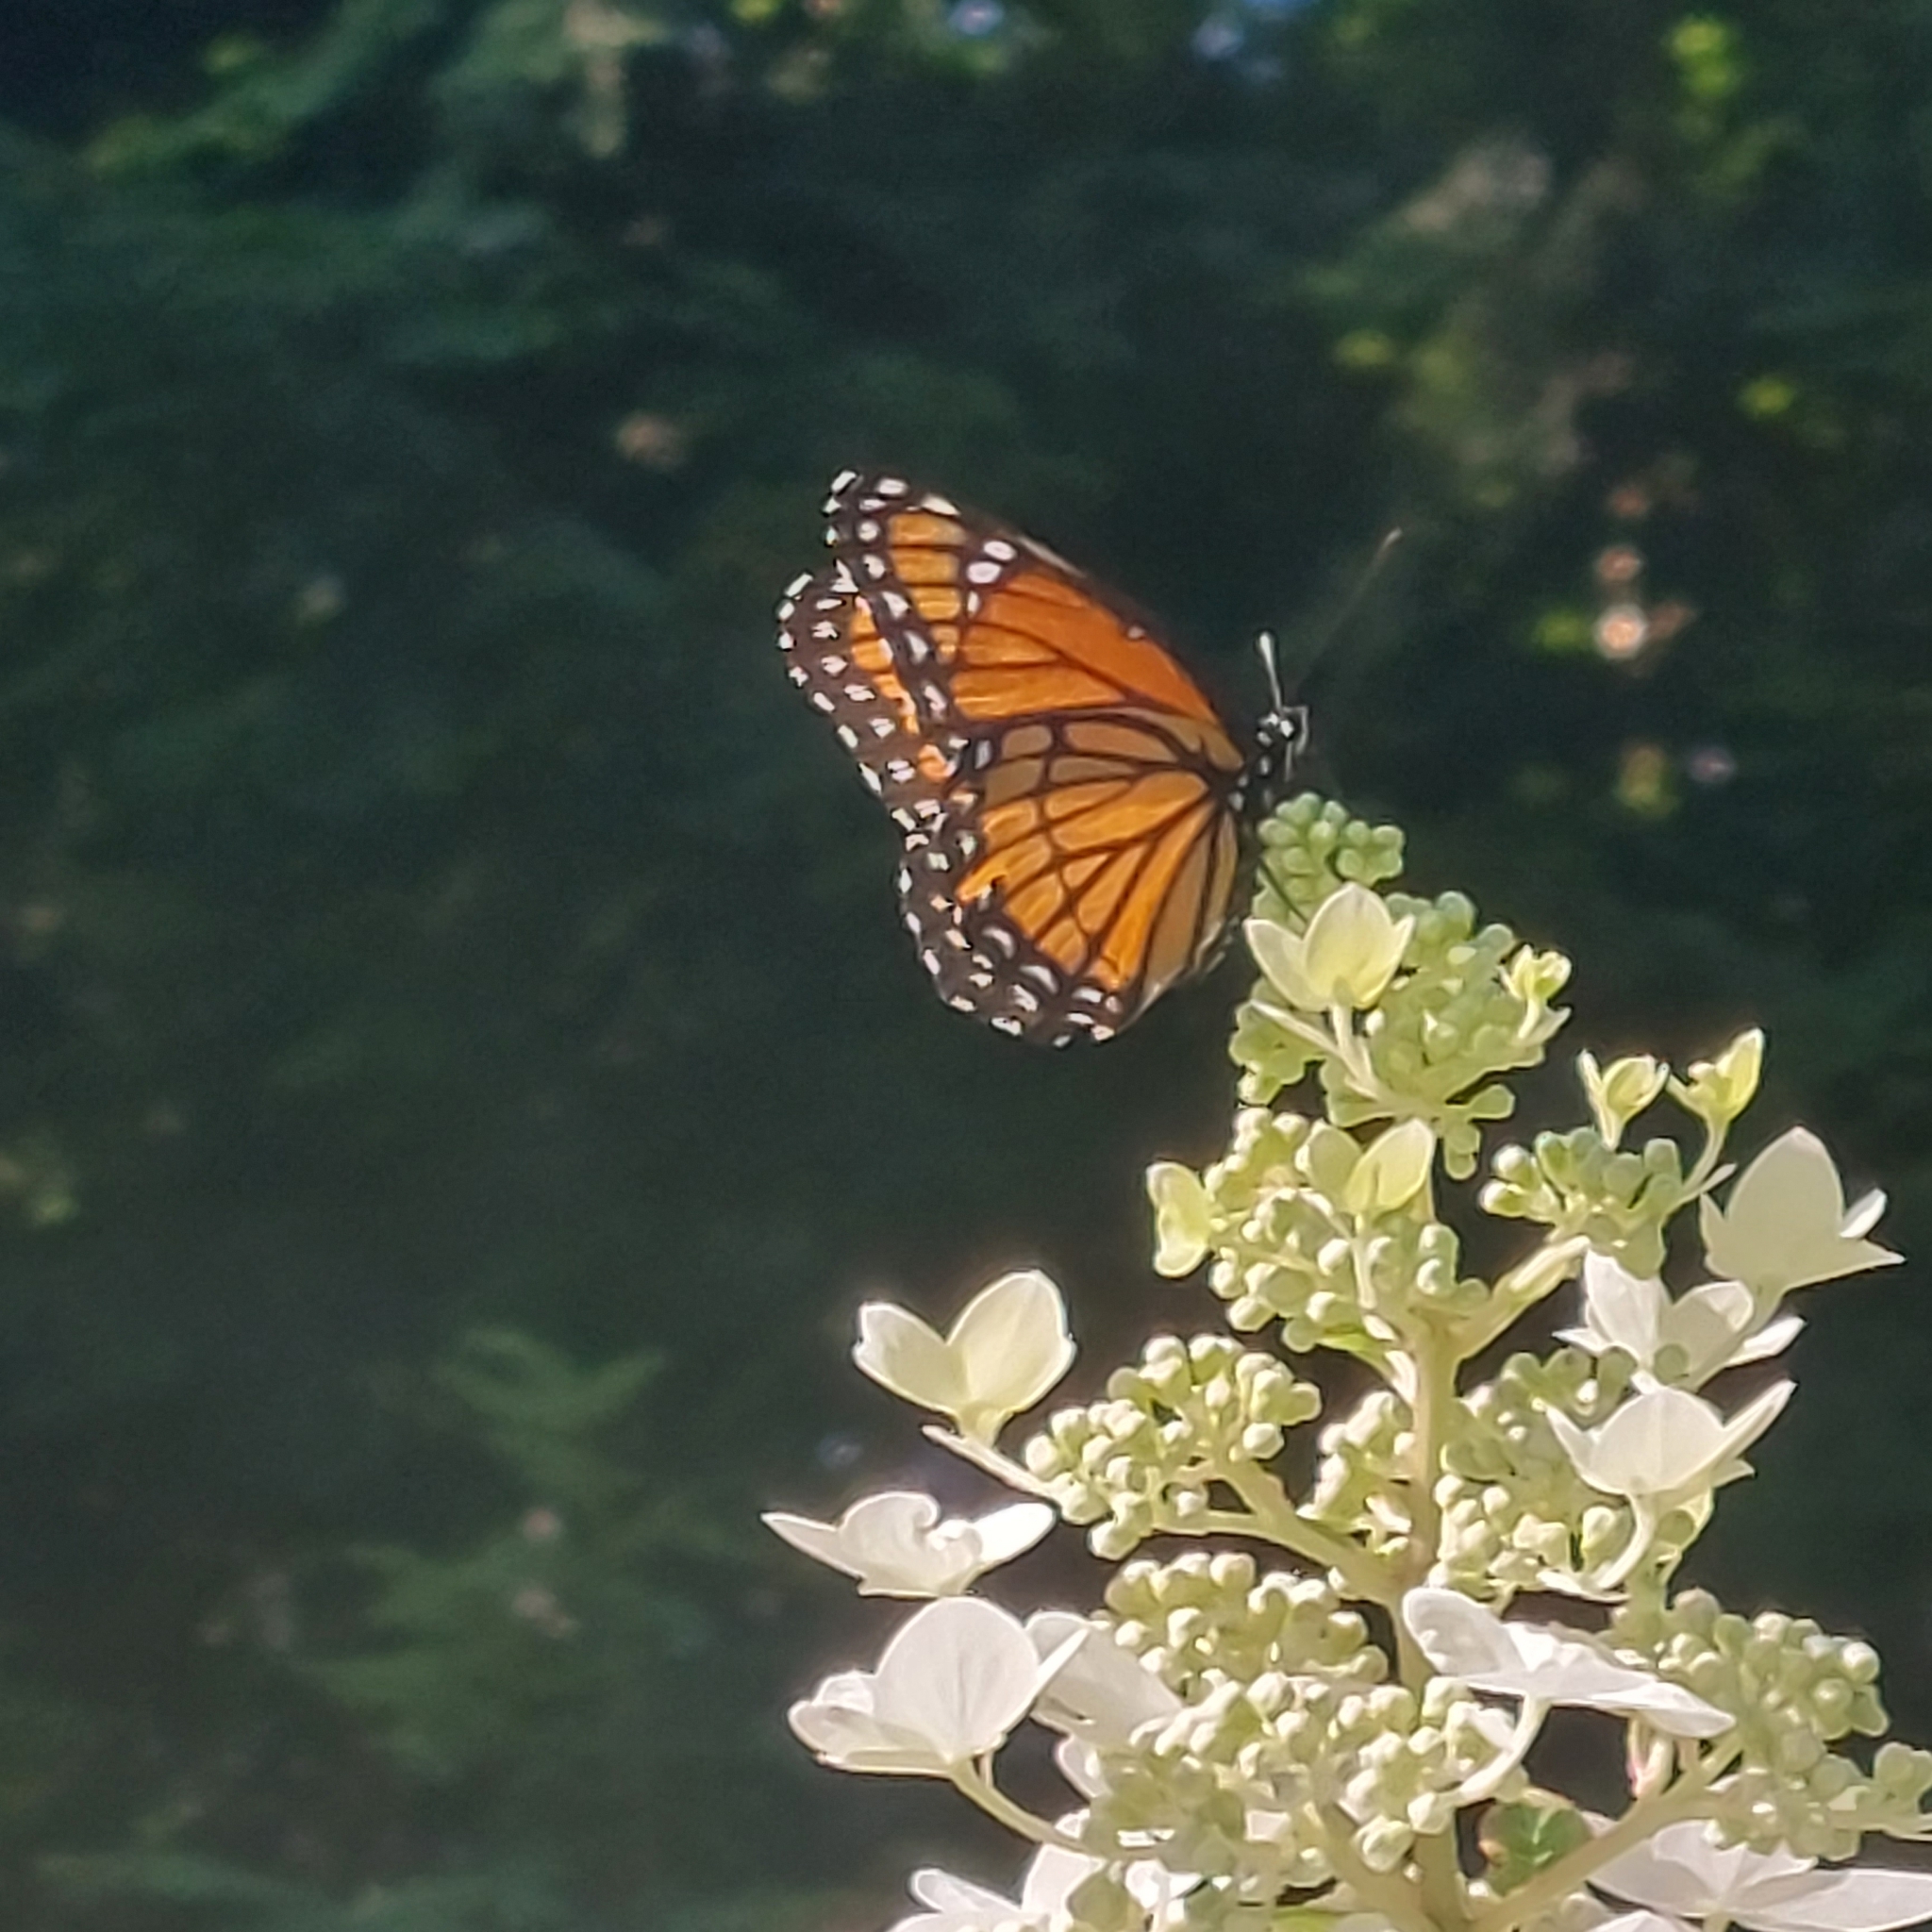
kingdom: Animalia
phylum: Arthropoda
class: Insecta
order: Lepidoptera
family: Nymphalidae
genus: Limenitis
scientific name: Limenitis archippus
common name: Viceroy
